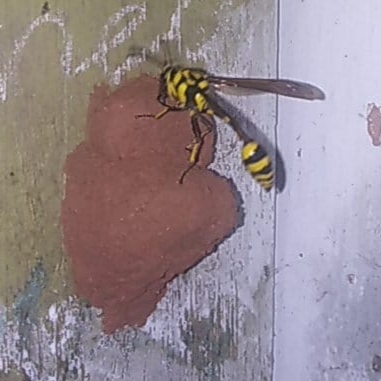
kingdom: Animalia
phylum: Arthropoda
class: Insecta
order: Hymenoptera
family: Eumenidae
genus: Phimenes
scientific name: Phimenes flavopictus
